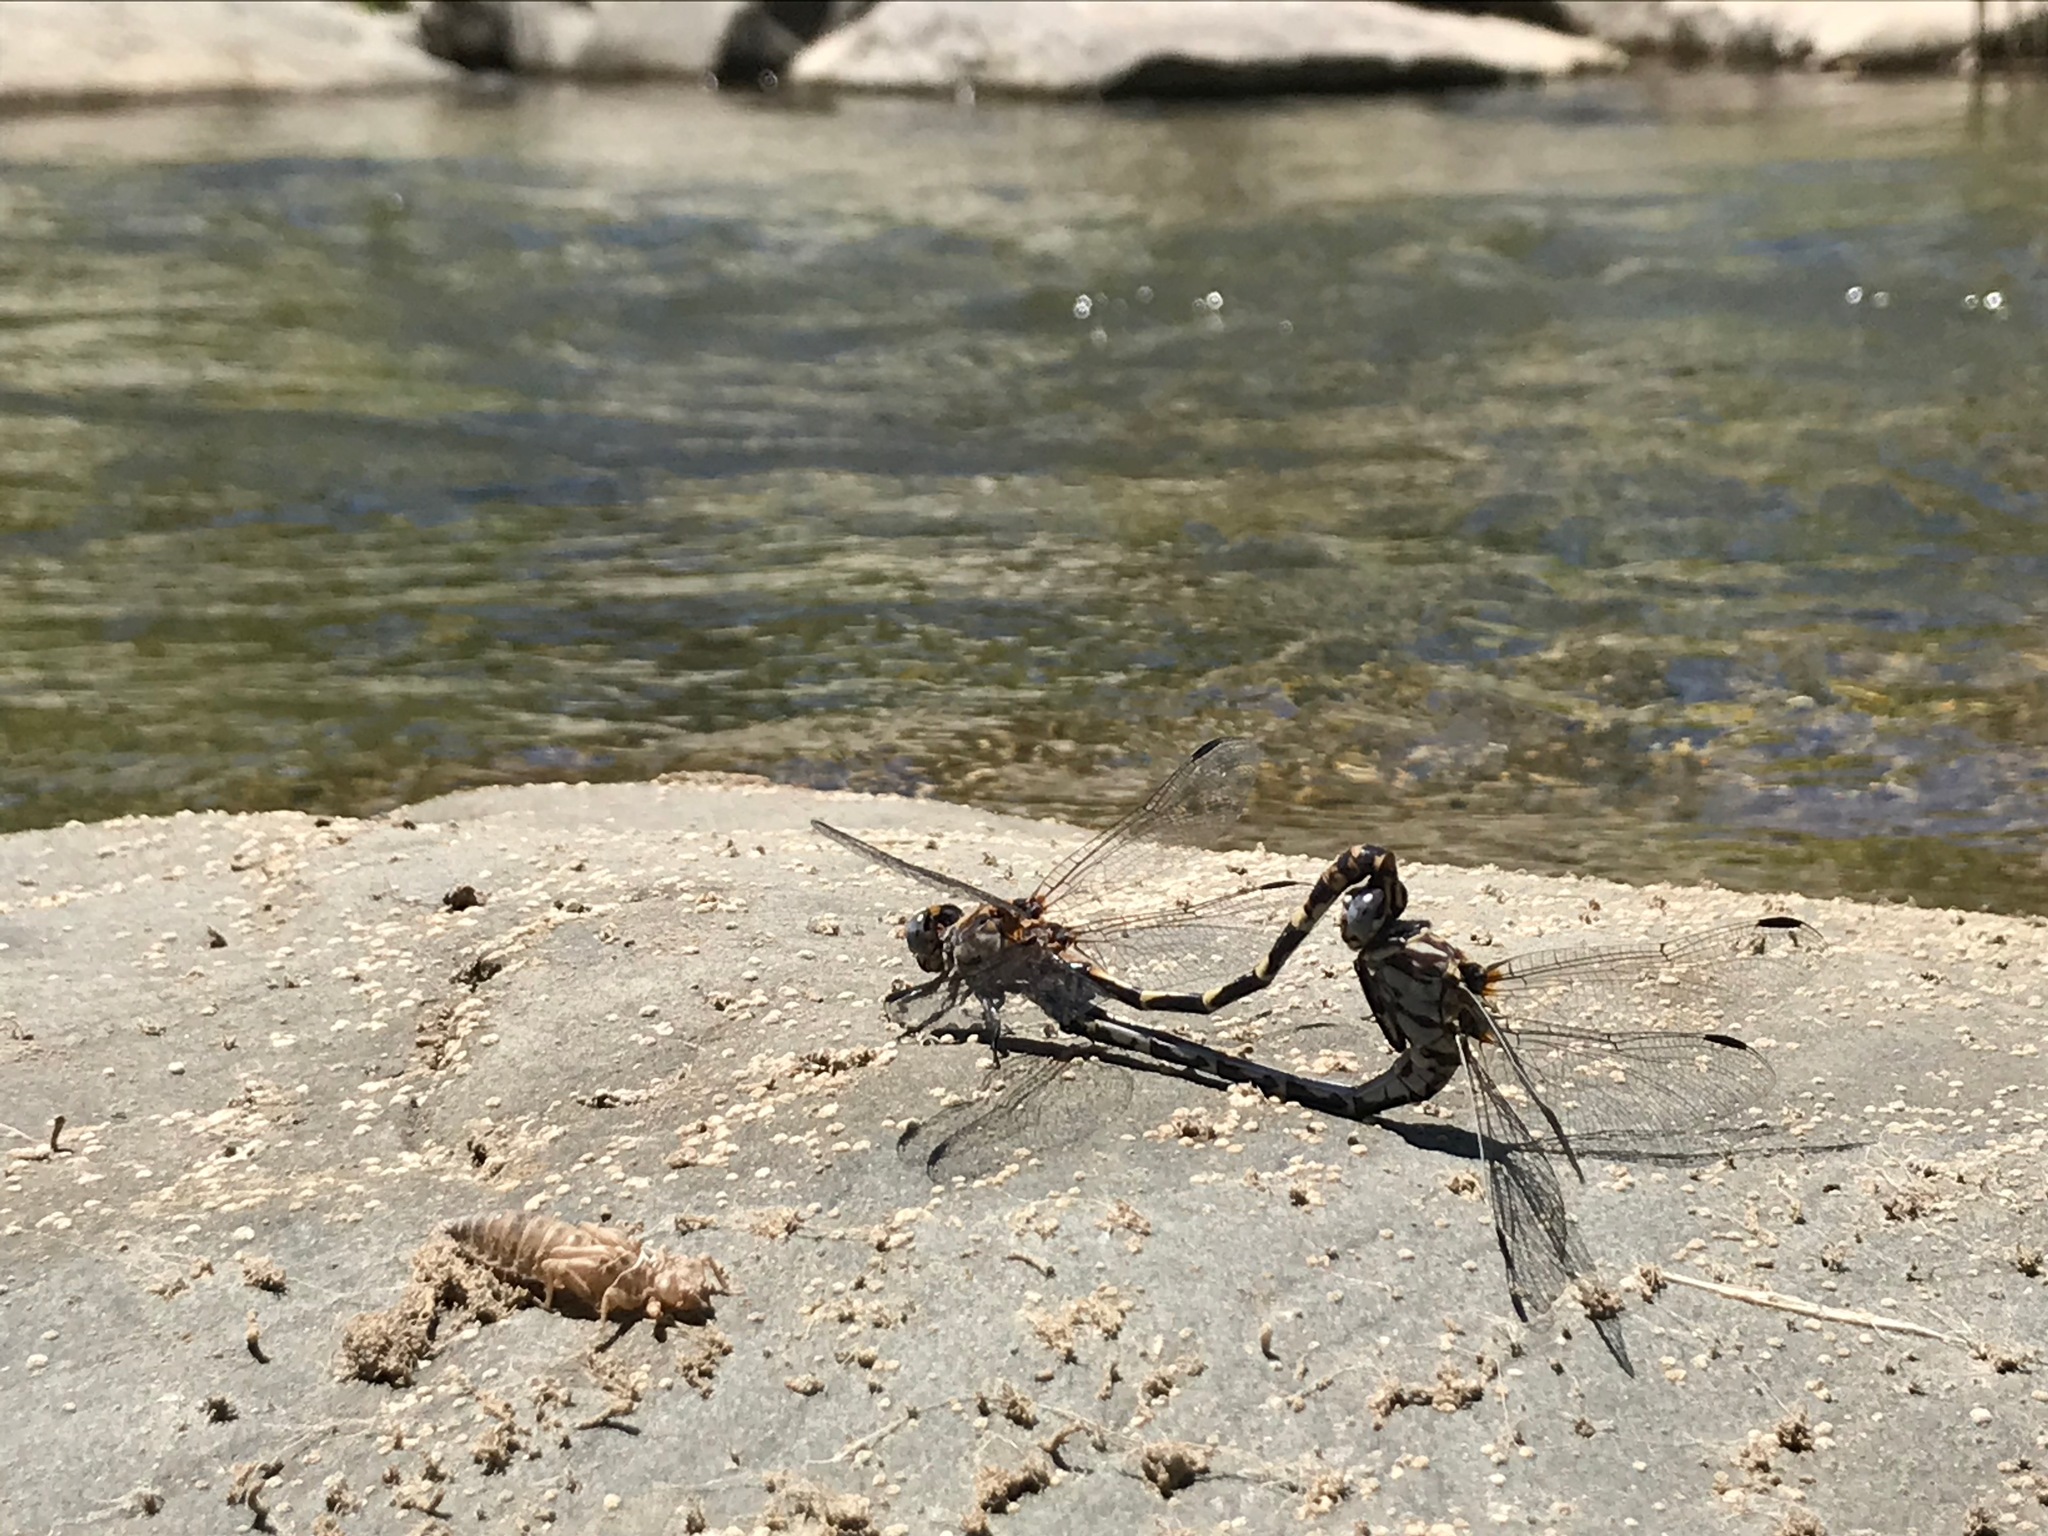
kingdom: Animalia
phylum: Arthropoda
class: Insecta
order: Odonata
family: Gomphidae
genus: Progomphus
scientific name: Progomphus borealis
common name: Gray sanddragon
